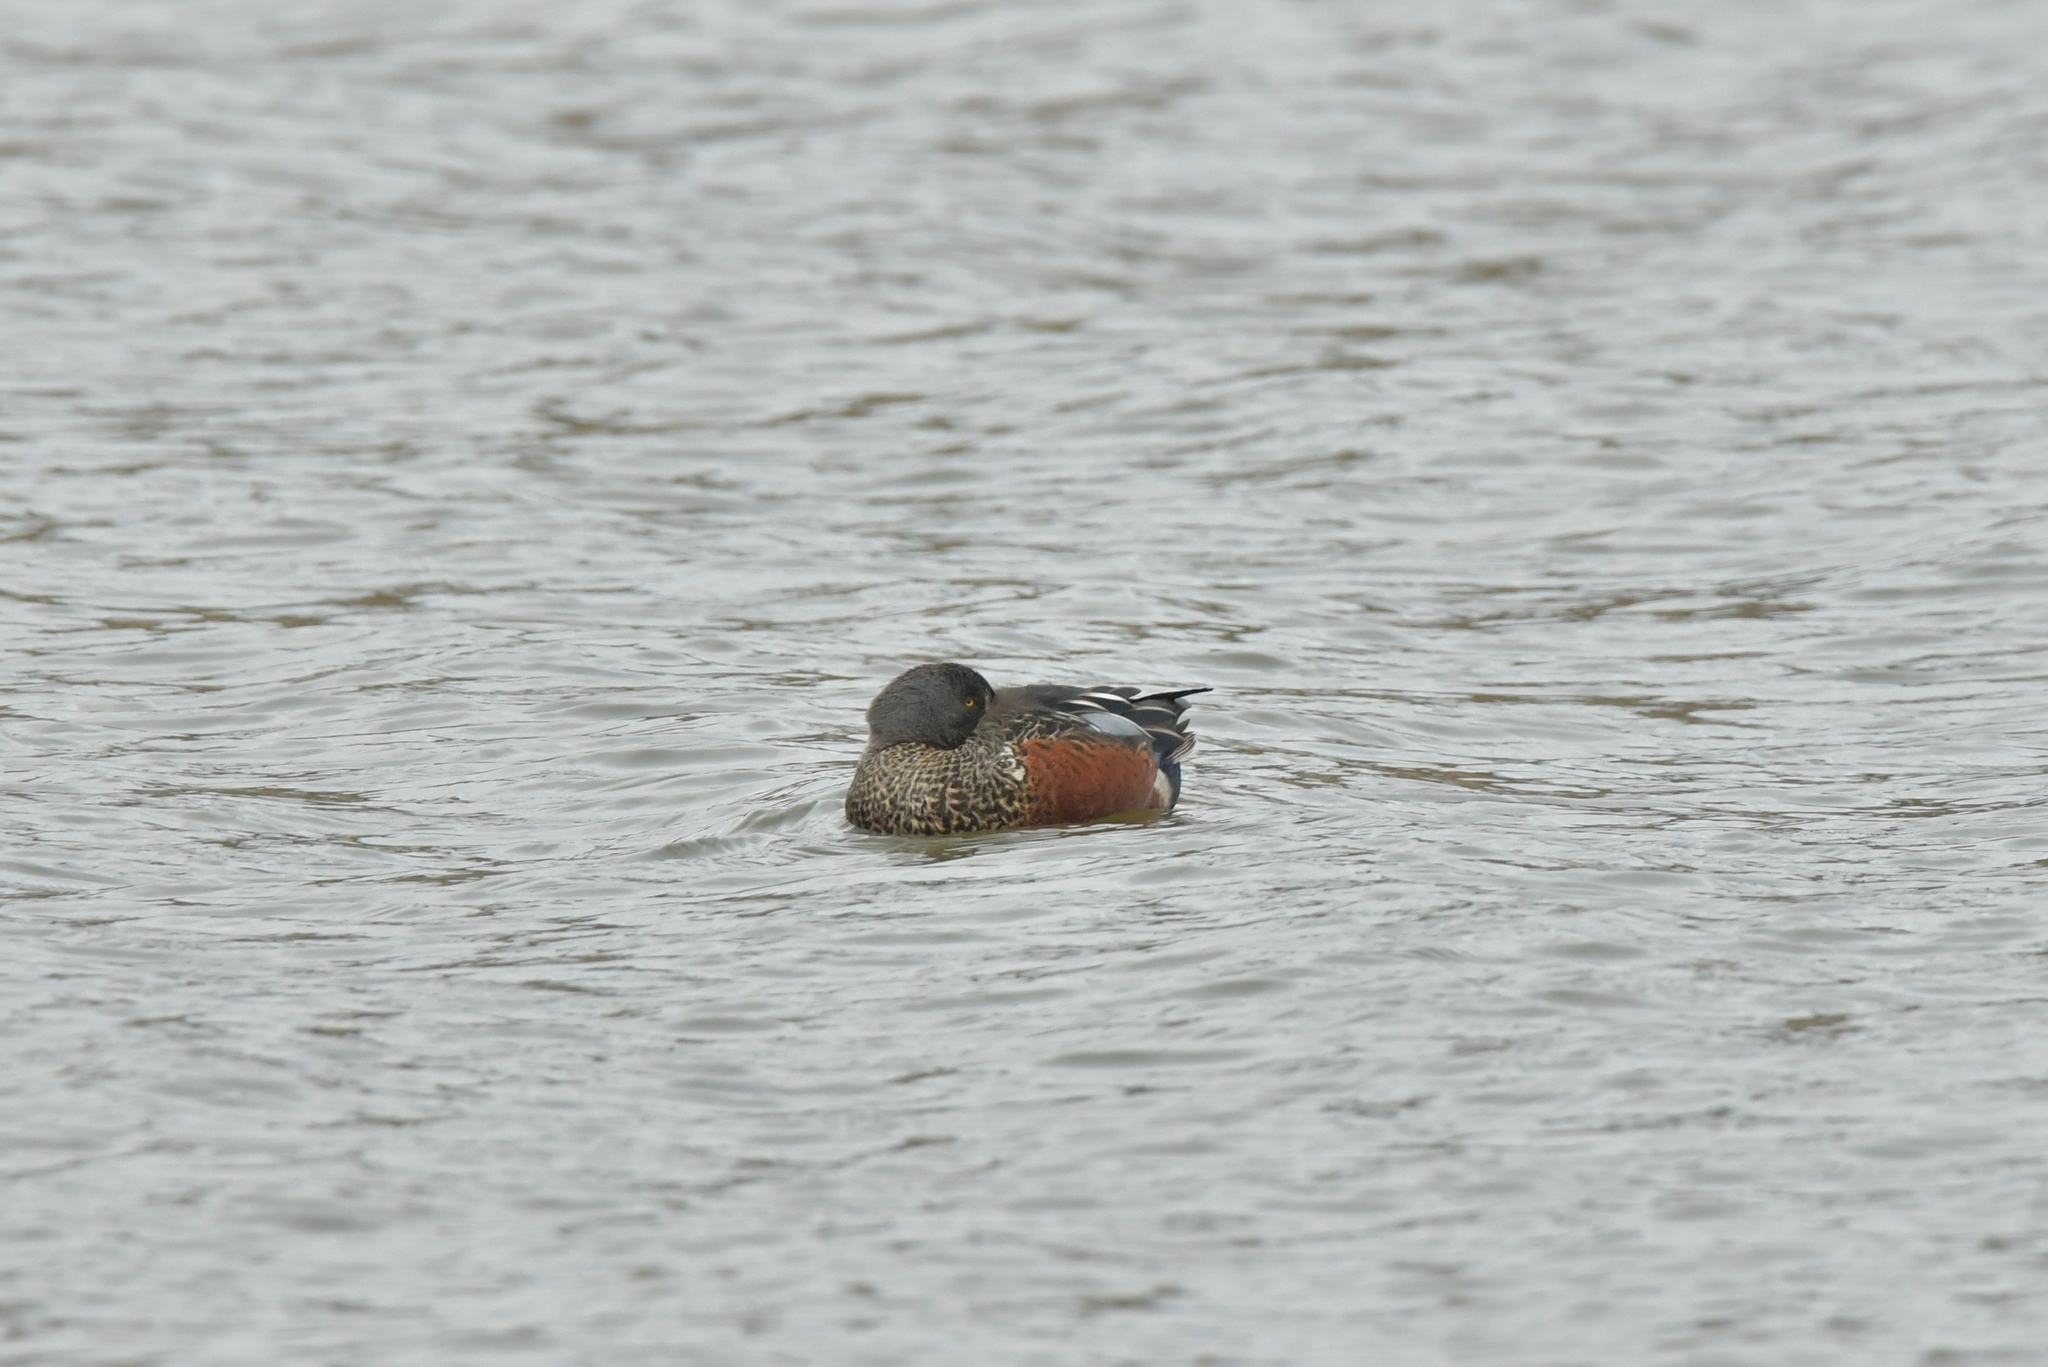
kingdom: Animalia
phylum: Chordata
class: Aves
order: Anseriformes
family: Anatidae
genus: Spatula
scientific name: Spatula rhynchotis
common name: Australian shoveler
